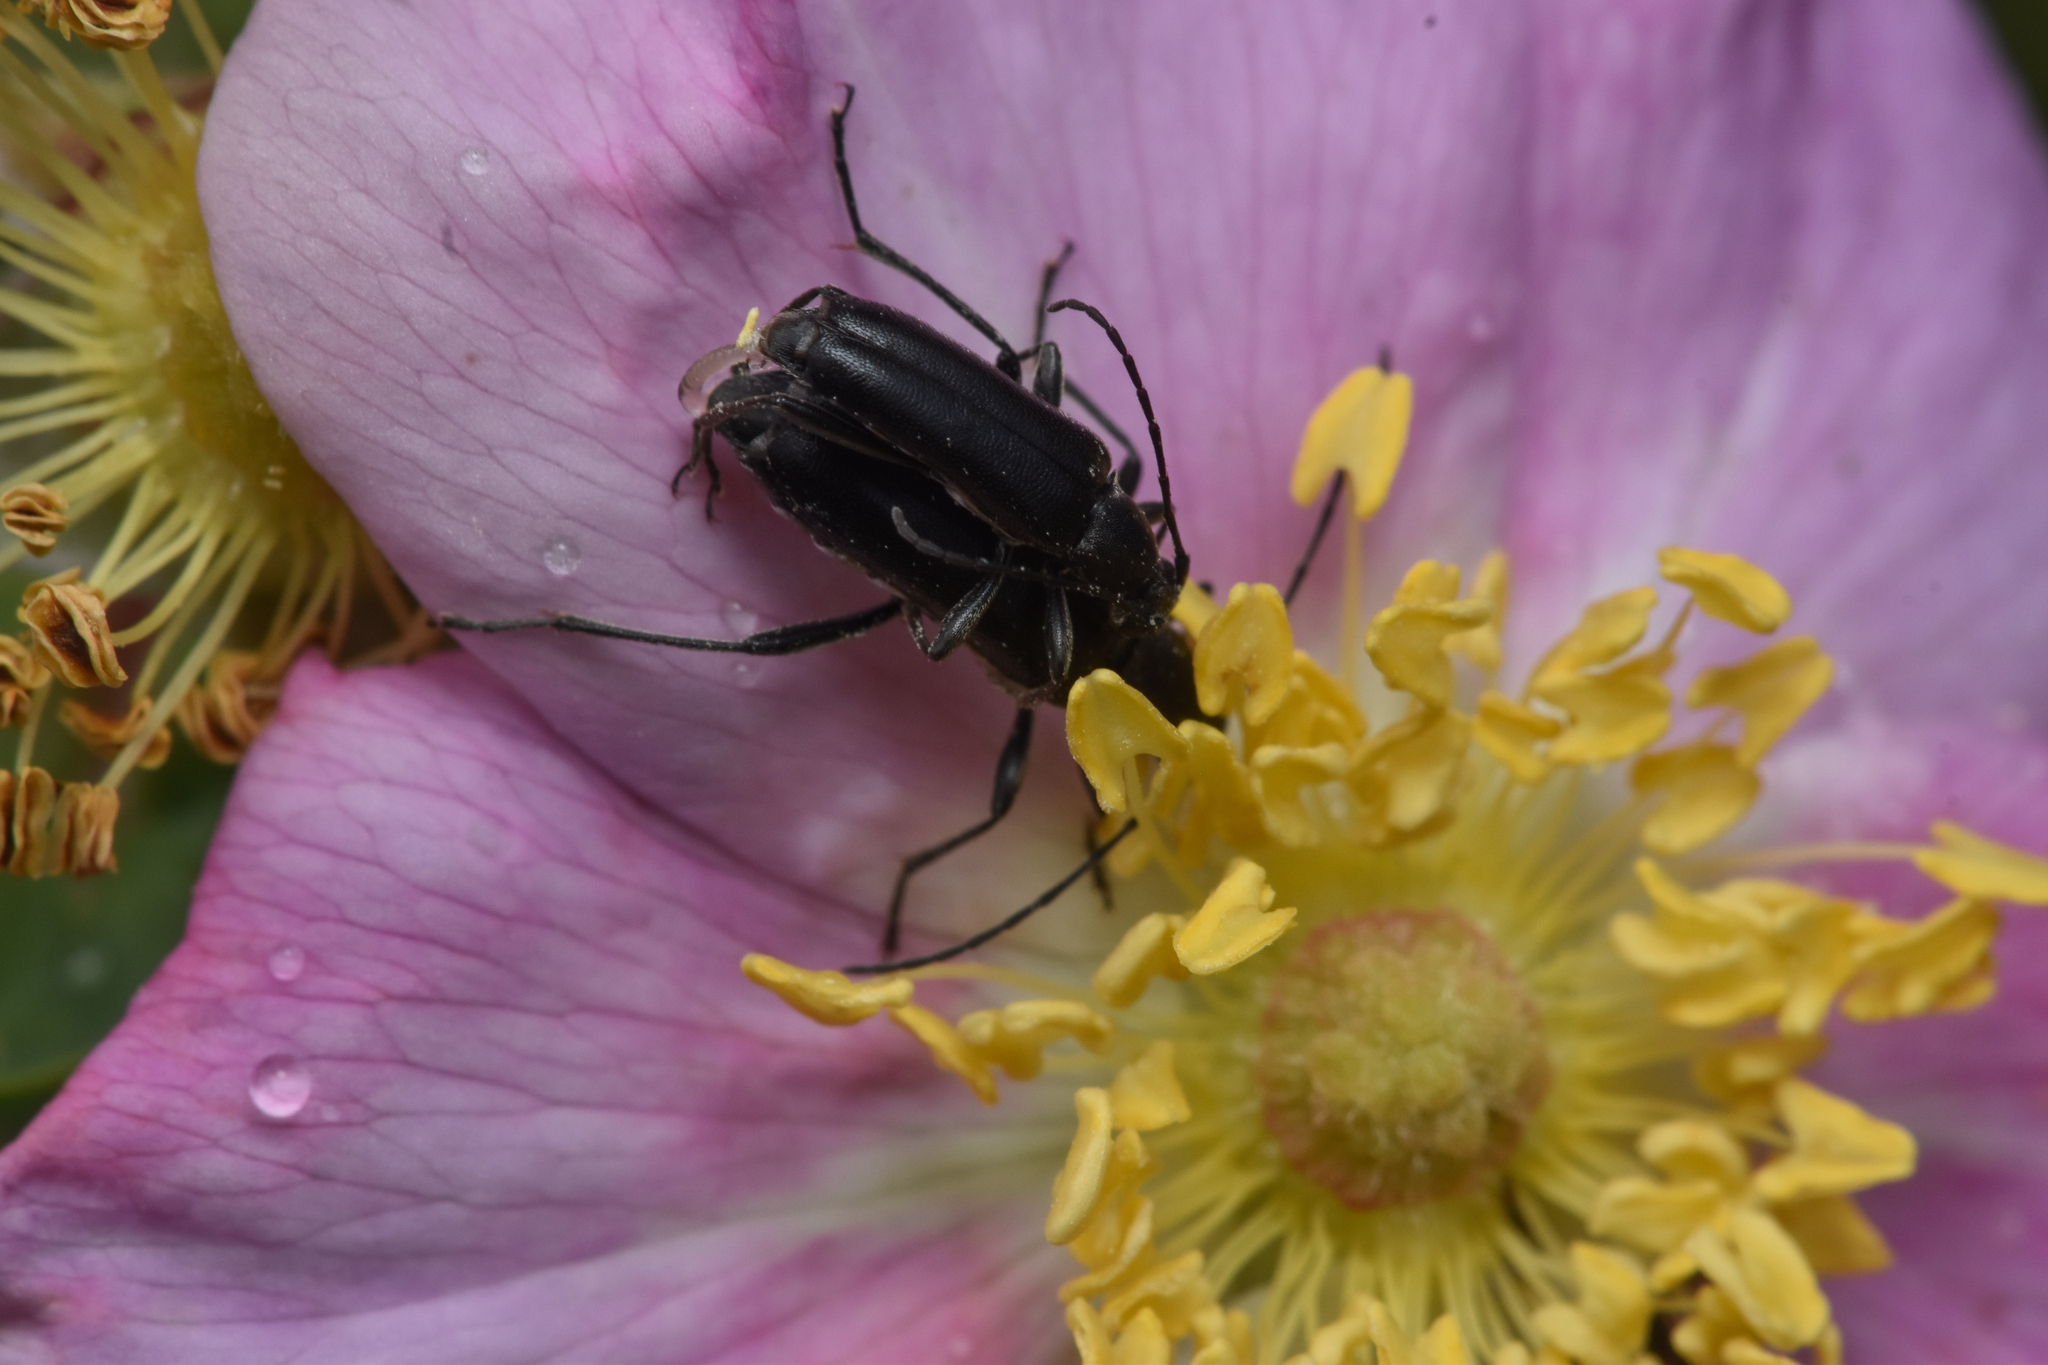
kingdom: Animalia
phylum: Arthropoda
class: Insecta
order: Coleoptera
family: Cerambycidae
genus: Grammoptera
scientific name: Grammoptera subargentata
